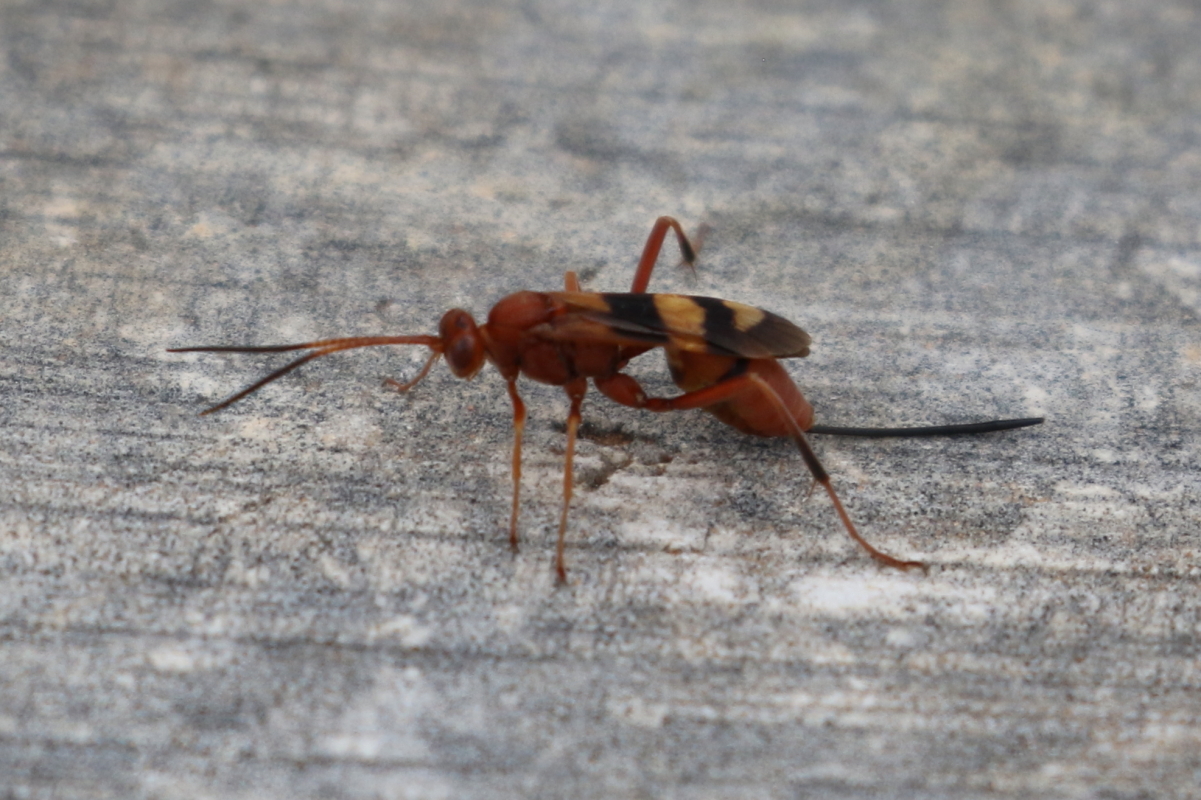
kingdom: Animalia
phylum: Arthropoda
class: Insecta
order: Hymenoptera
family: Ichneumonidae
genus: Compsocryptus
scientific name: Compsocryptus texensis
